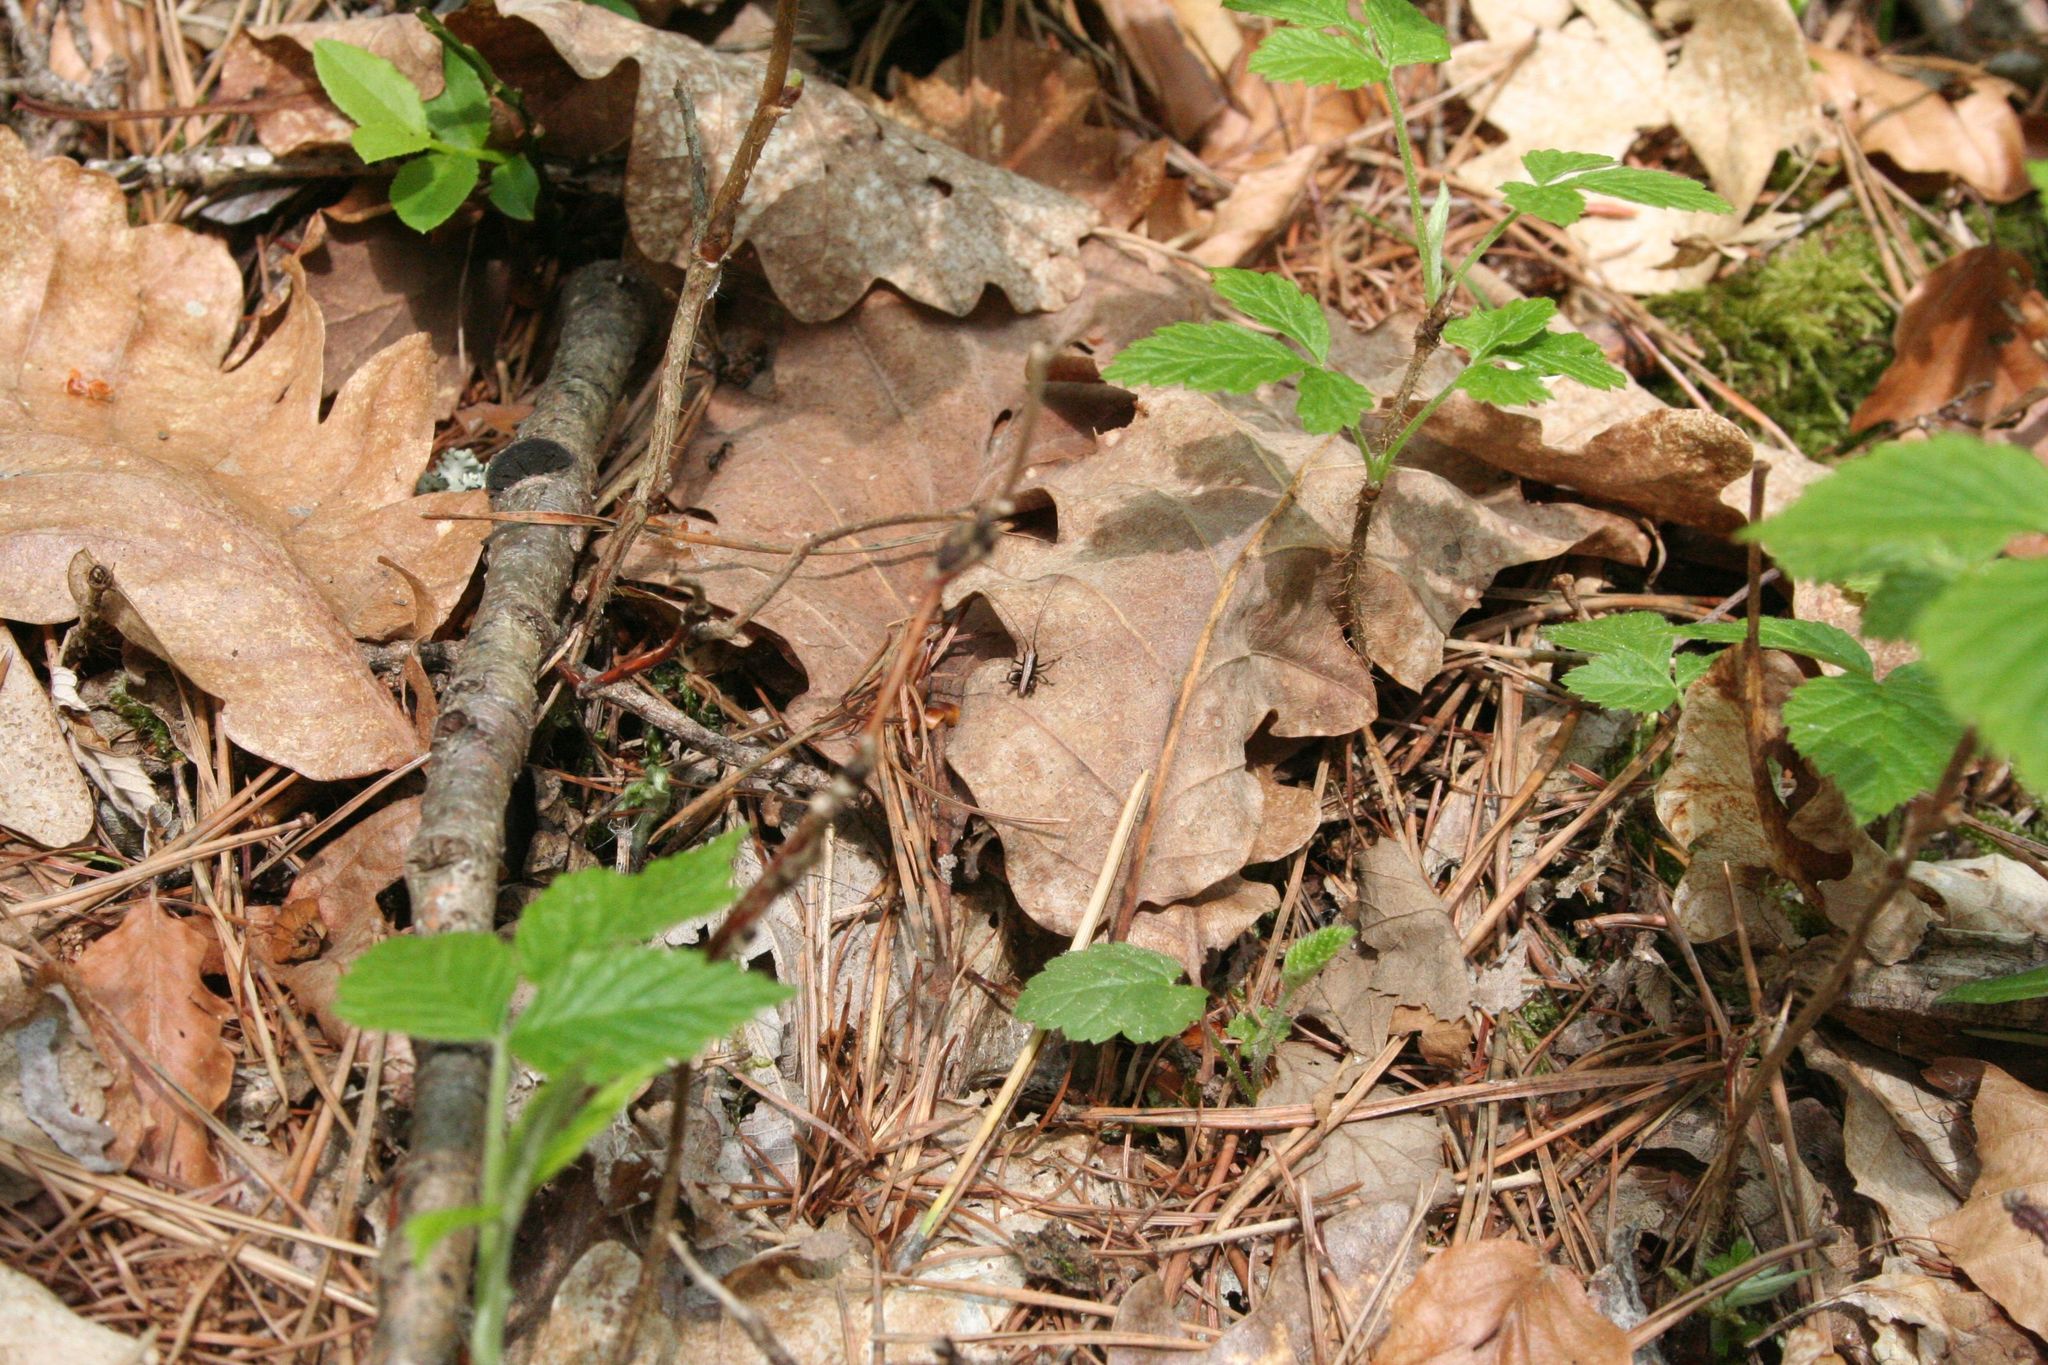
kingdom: Animalia
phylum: Arthropoda
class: Insecta
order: Orthoptera
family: Tettigoniidae
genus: Pholidoptera
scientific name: Pholidoptera griseoaptera
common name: Dark bush-cricket
